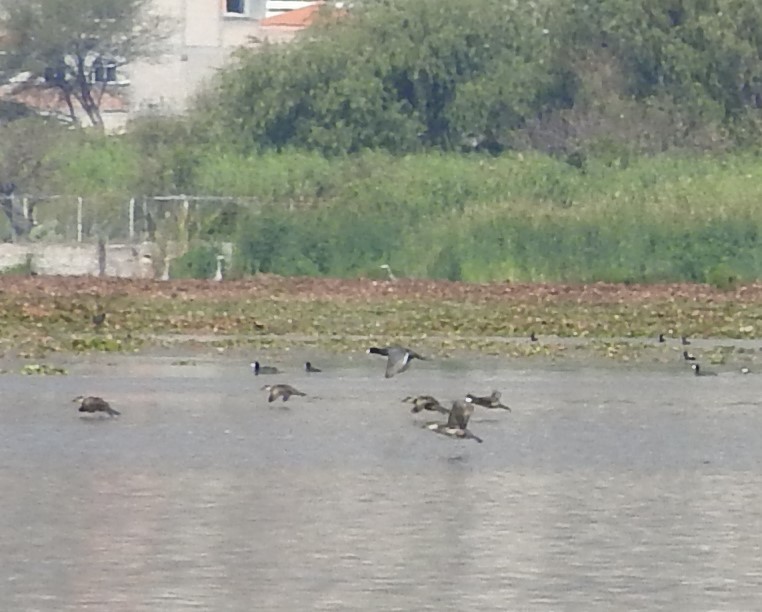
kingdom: Animalia
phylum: Chordata
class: Aves
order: Anseriformes
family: Anatidae
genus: Oxyura
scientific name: Oxyura jamaicensis
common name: Ruddy duck
